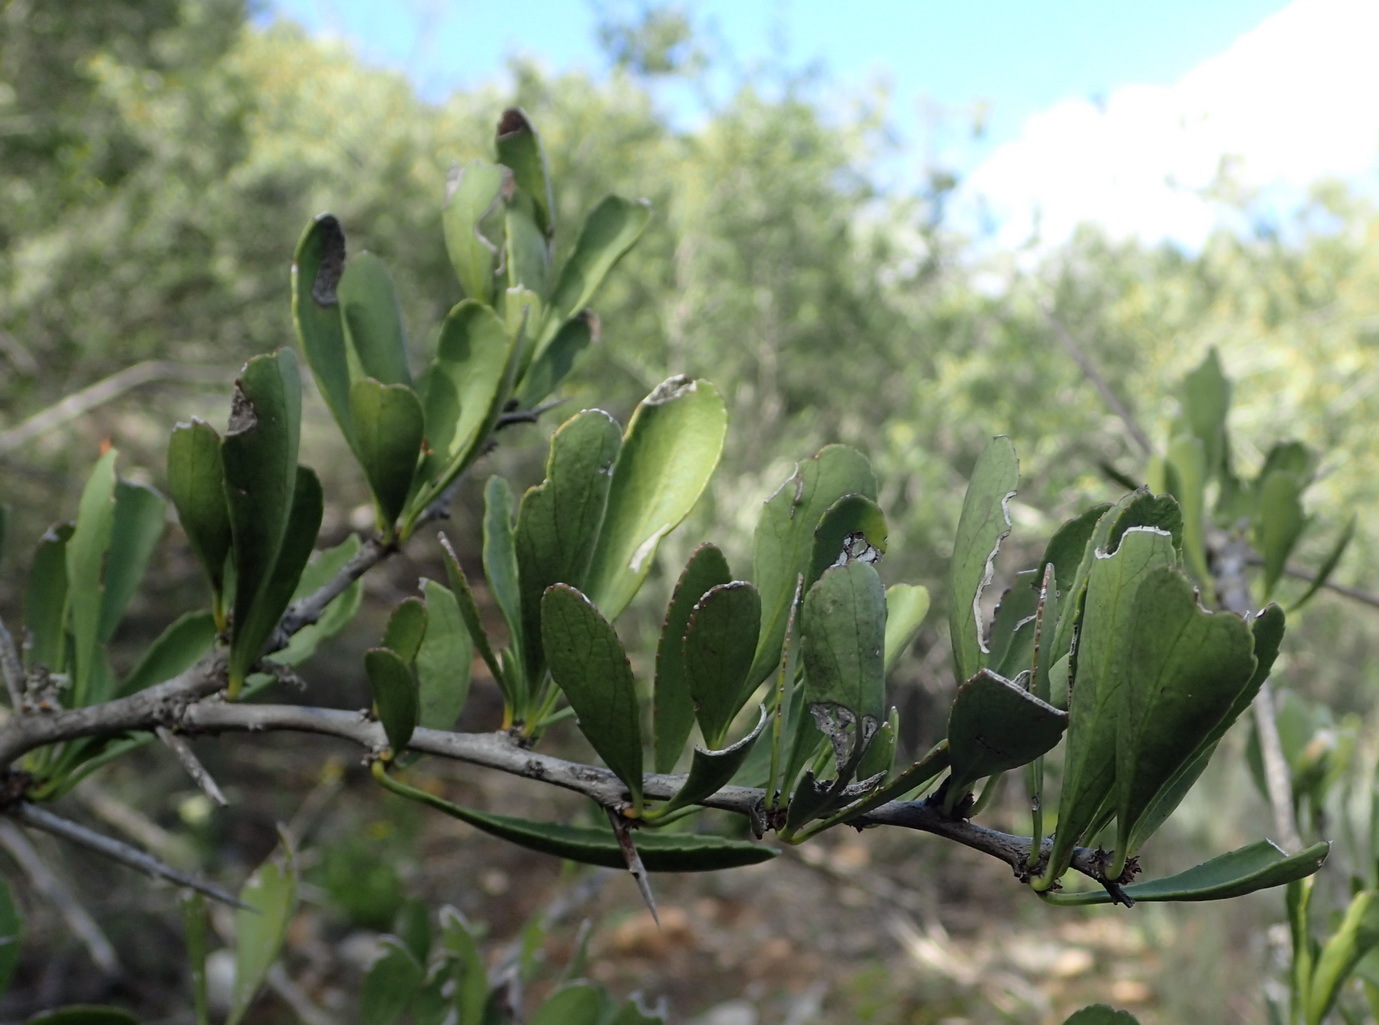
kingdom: Plantae
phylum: Tracheophyta
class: Magnoliopsida
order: Celastrales
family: Celastraceae
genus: Gymnosporia
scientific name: Gymnosporia buxifolia
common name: Common spike-thorn
